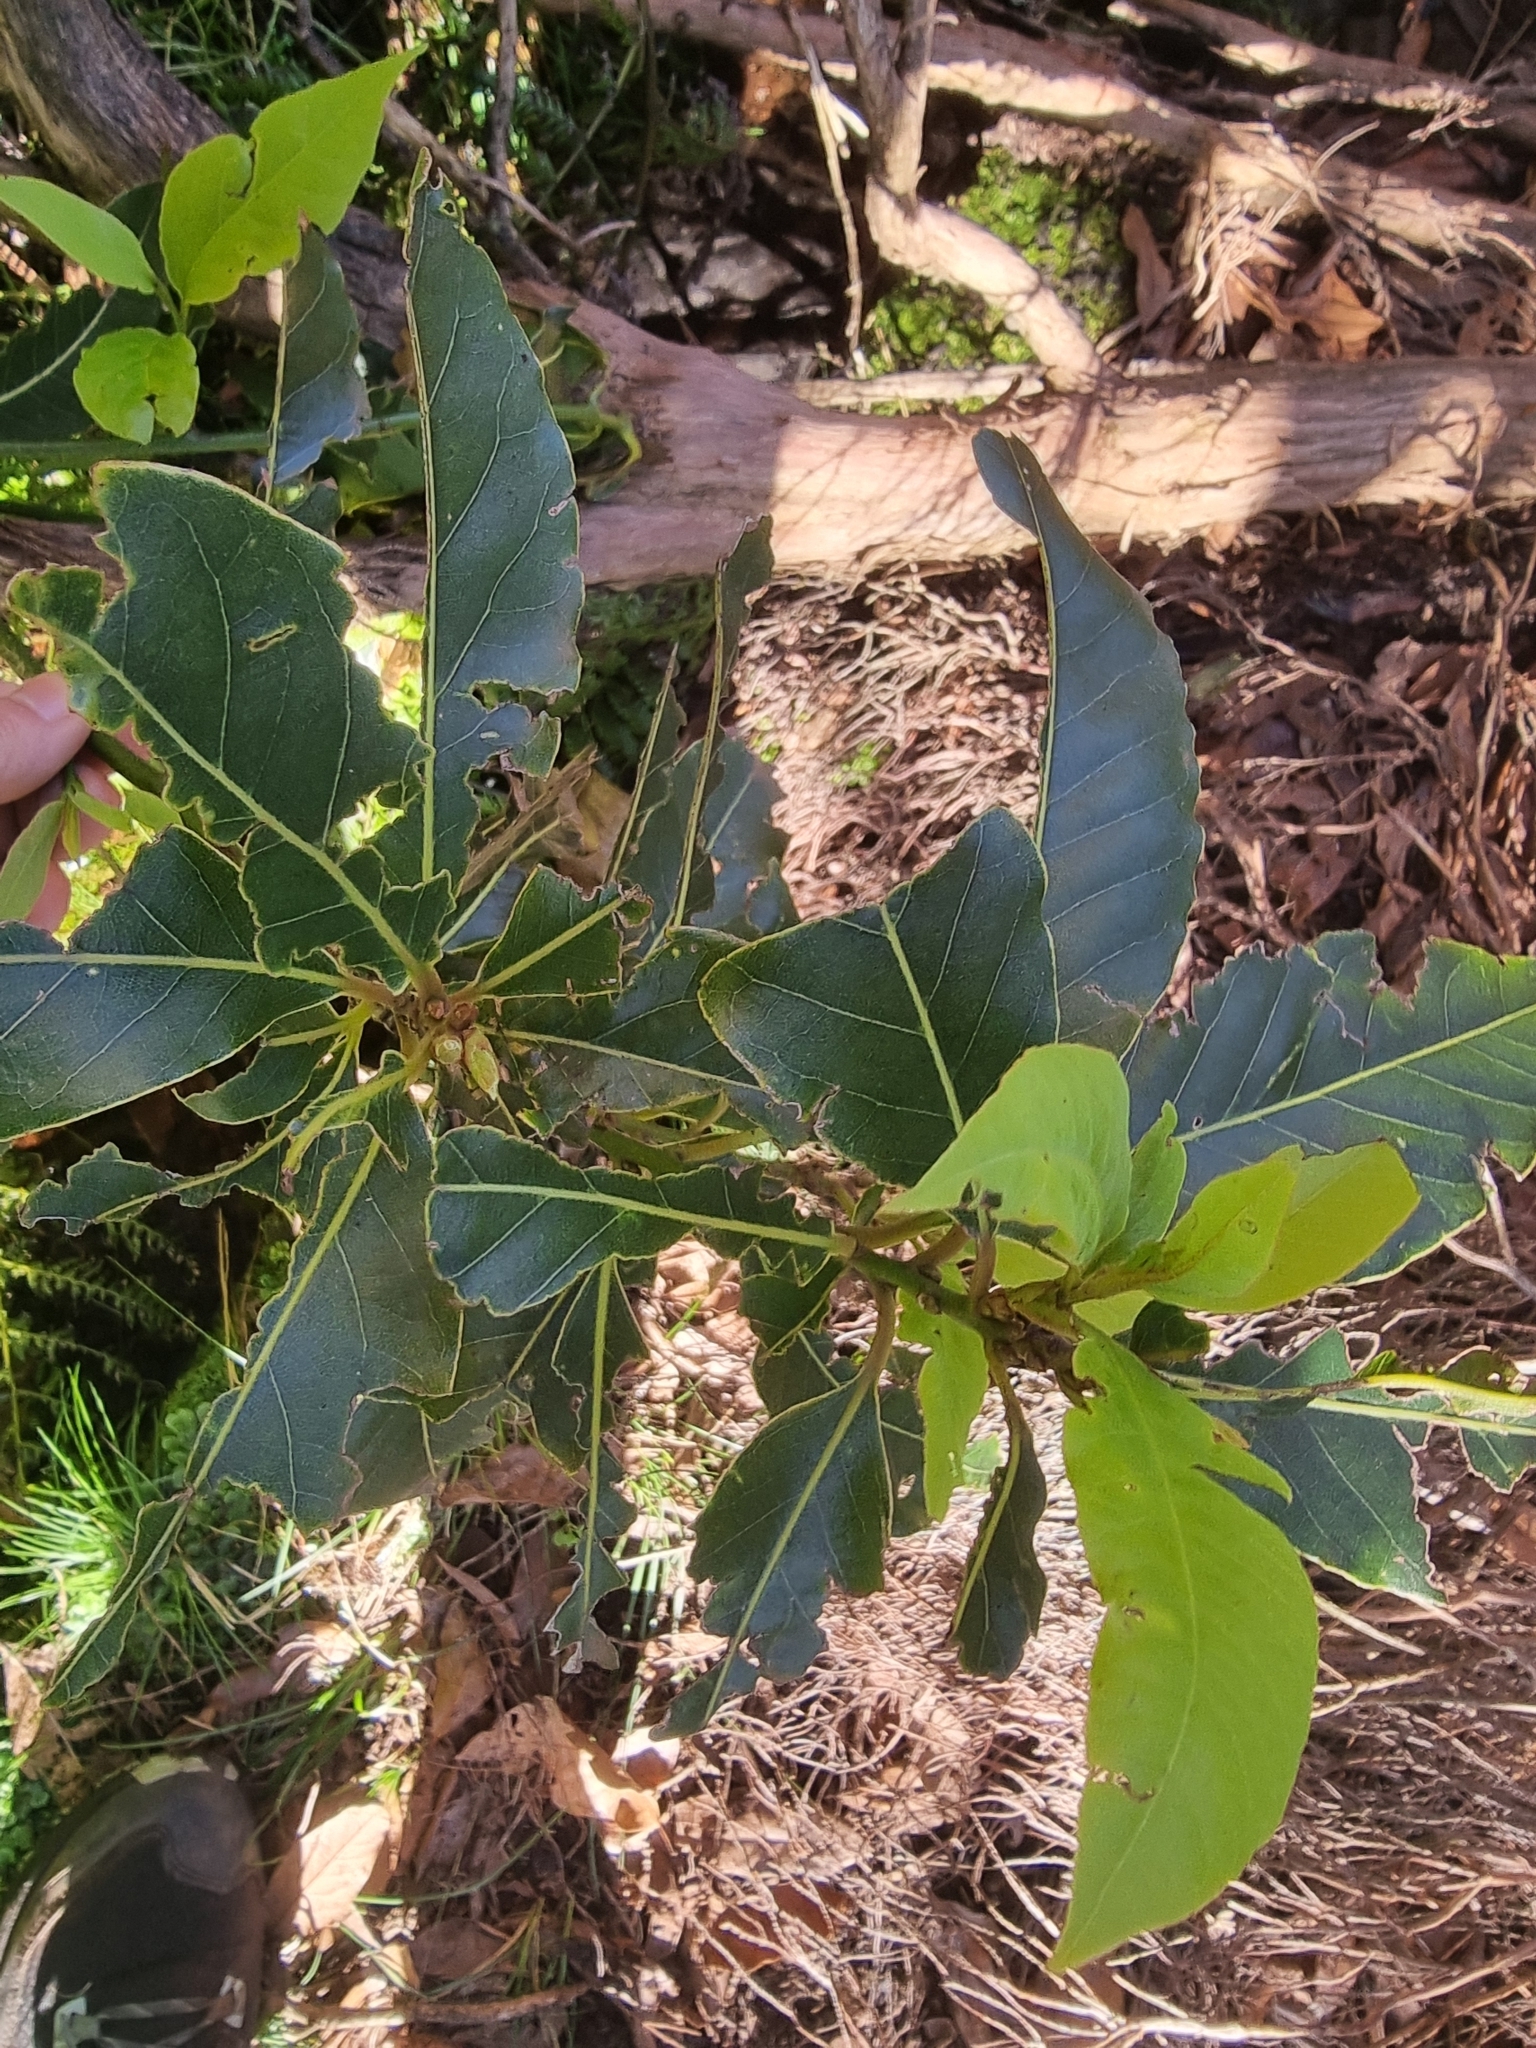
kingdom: Plantae
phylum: Tracheophyta
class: Magnoliopsida
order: Laurales
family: Lauraceae
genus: Laurus
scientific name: Laurus novocanariensis
